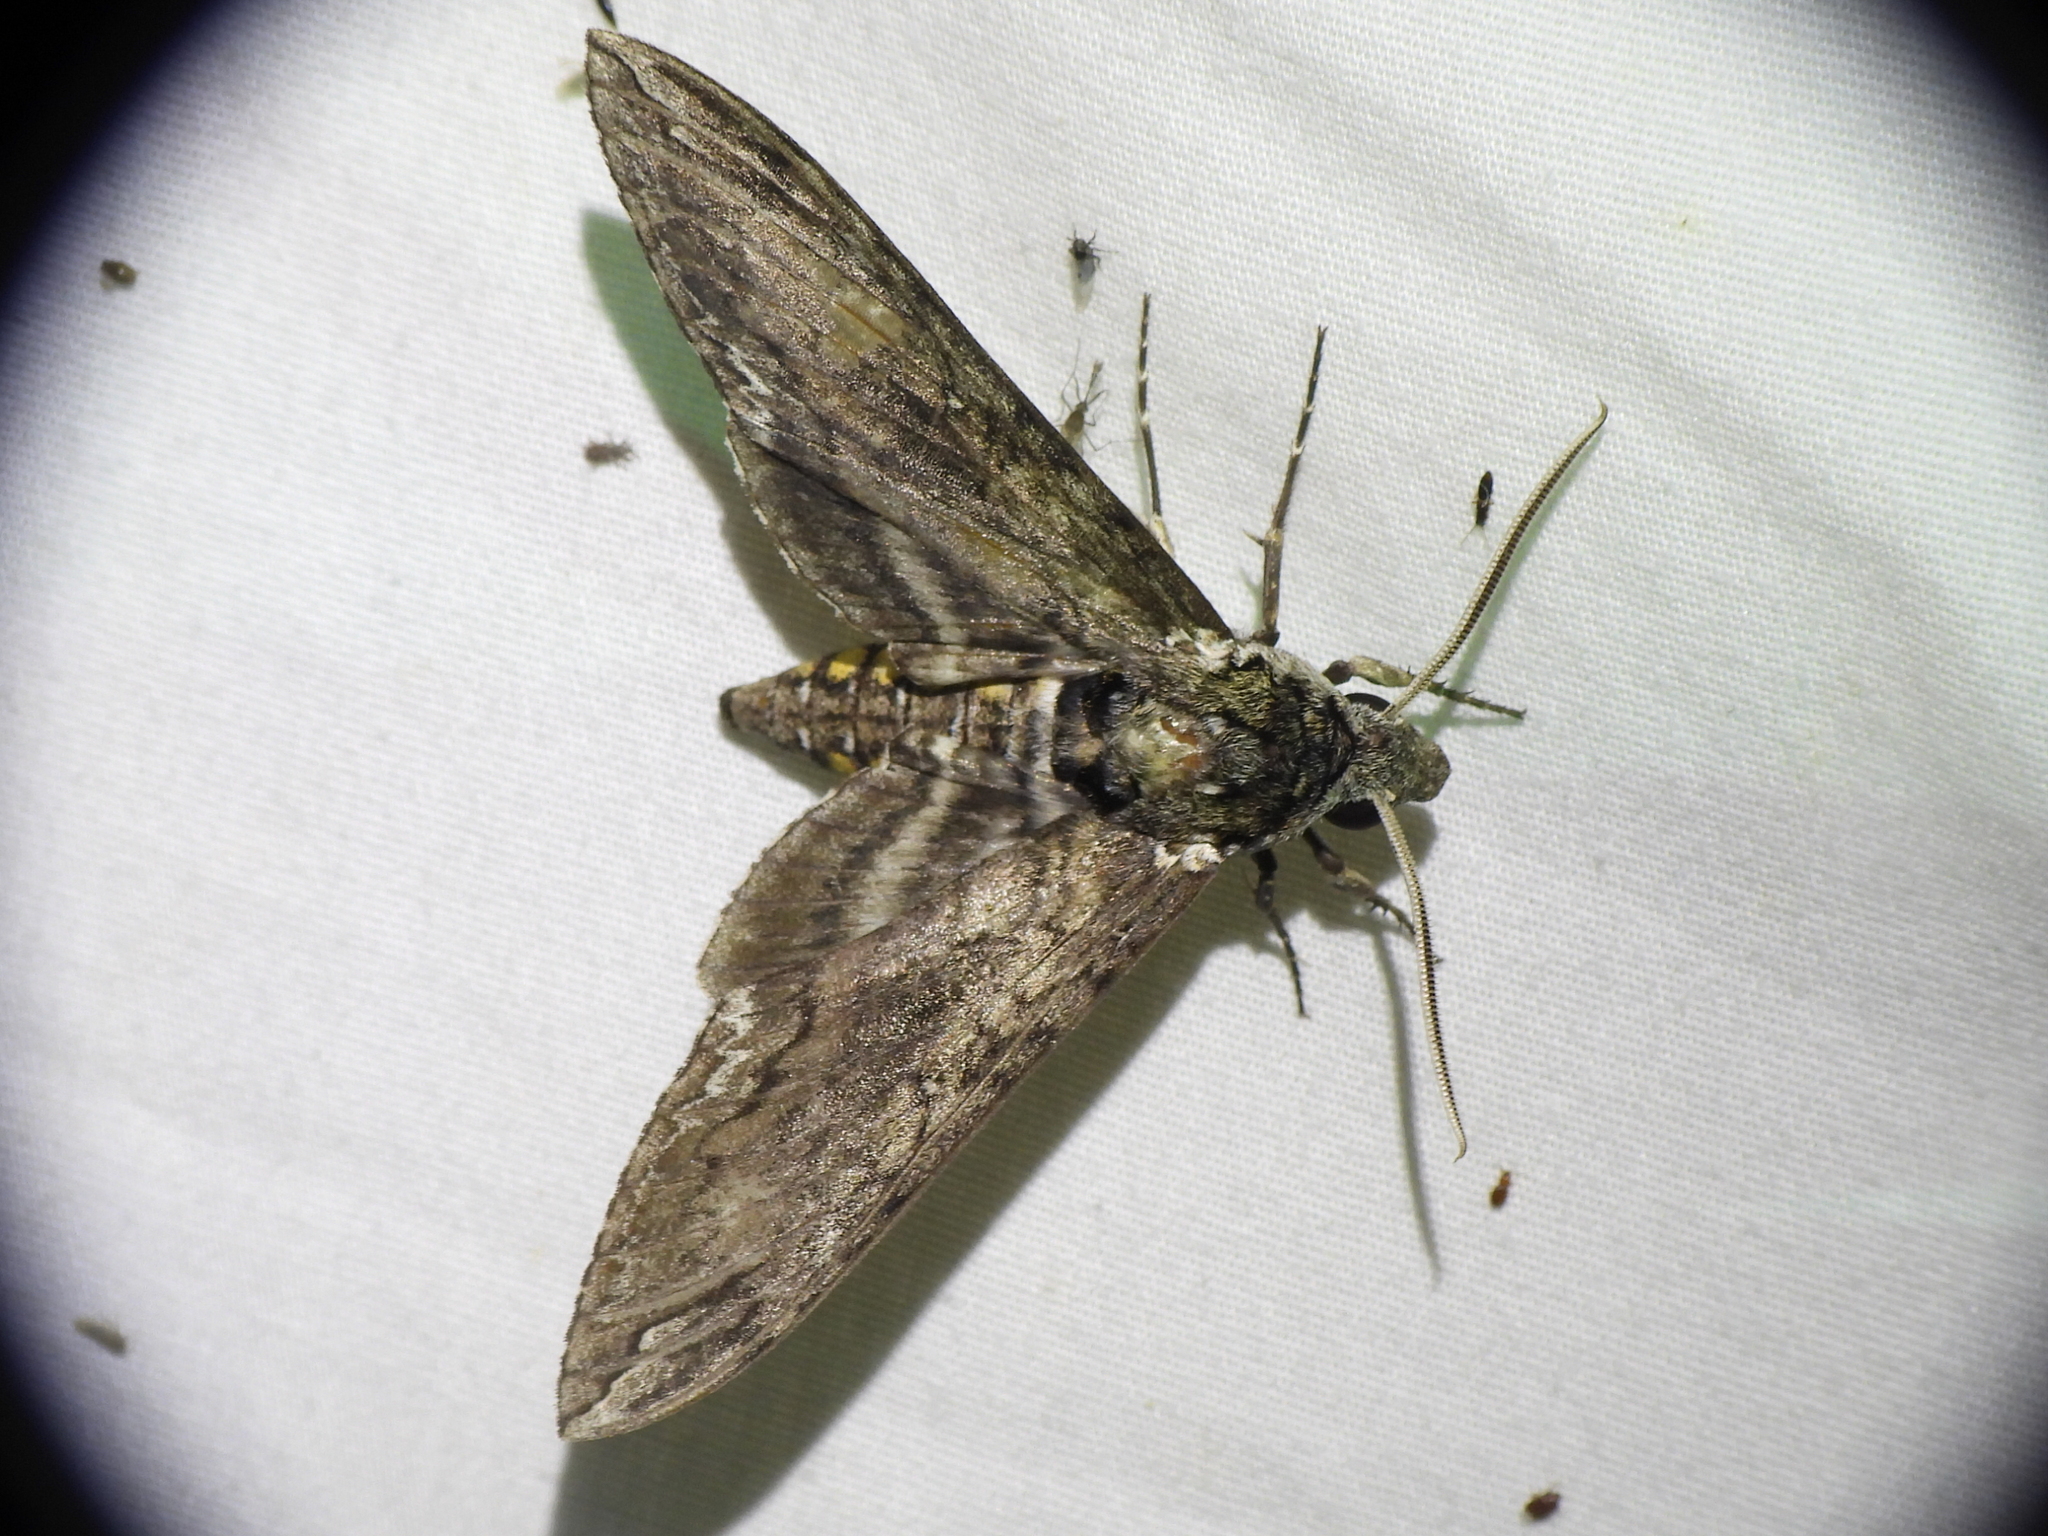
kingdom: Animalia
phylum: Arthropoda
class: Insecta
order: Lepidoptera
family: Sphingidae
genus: Manduca
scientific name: Manduca sexta
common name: Carolina sphinx
